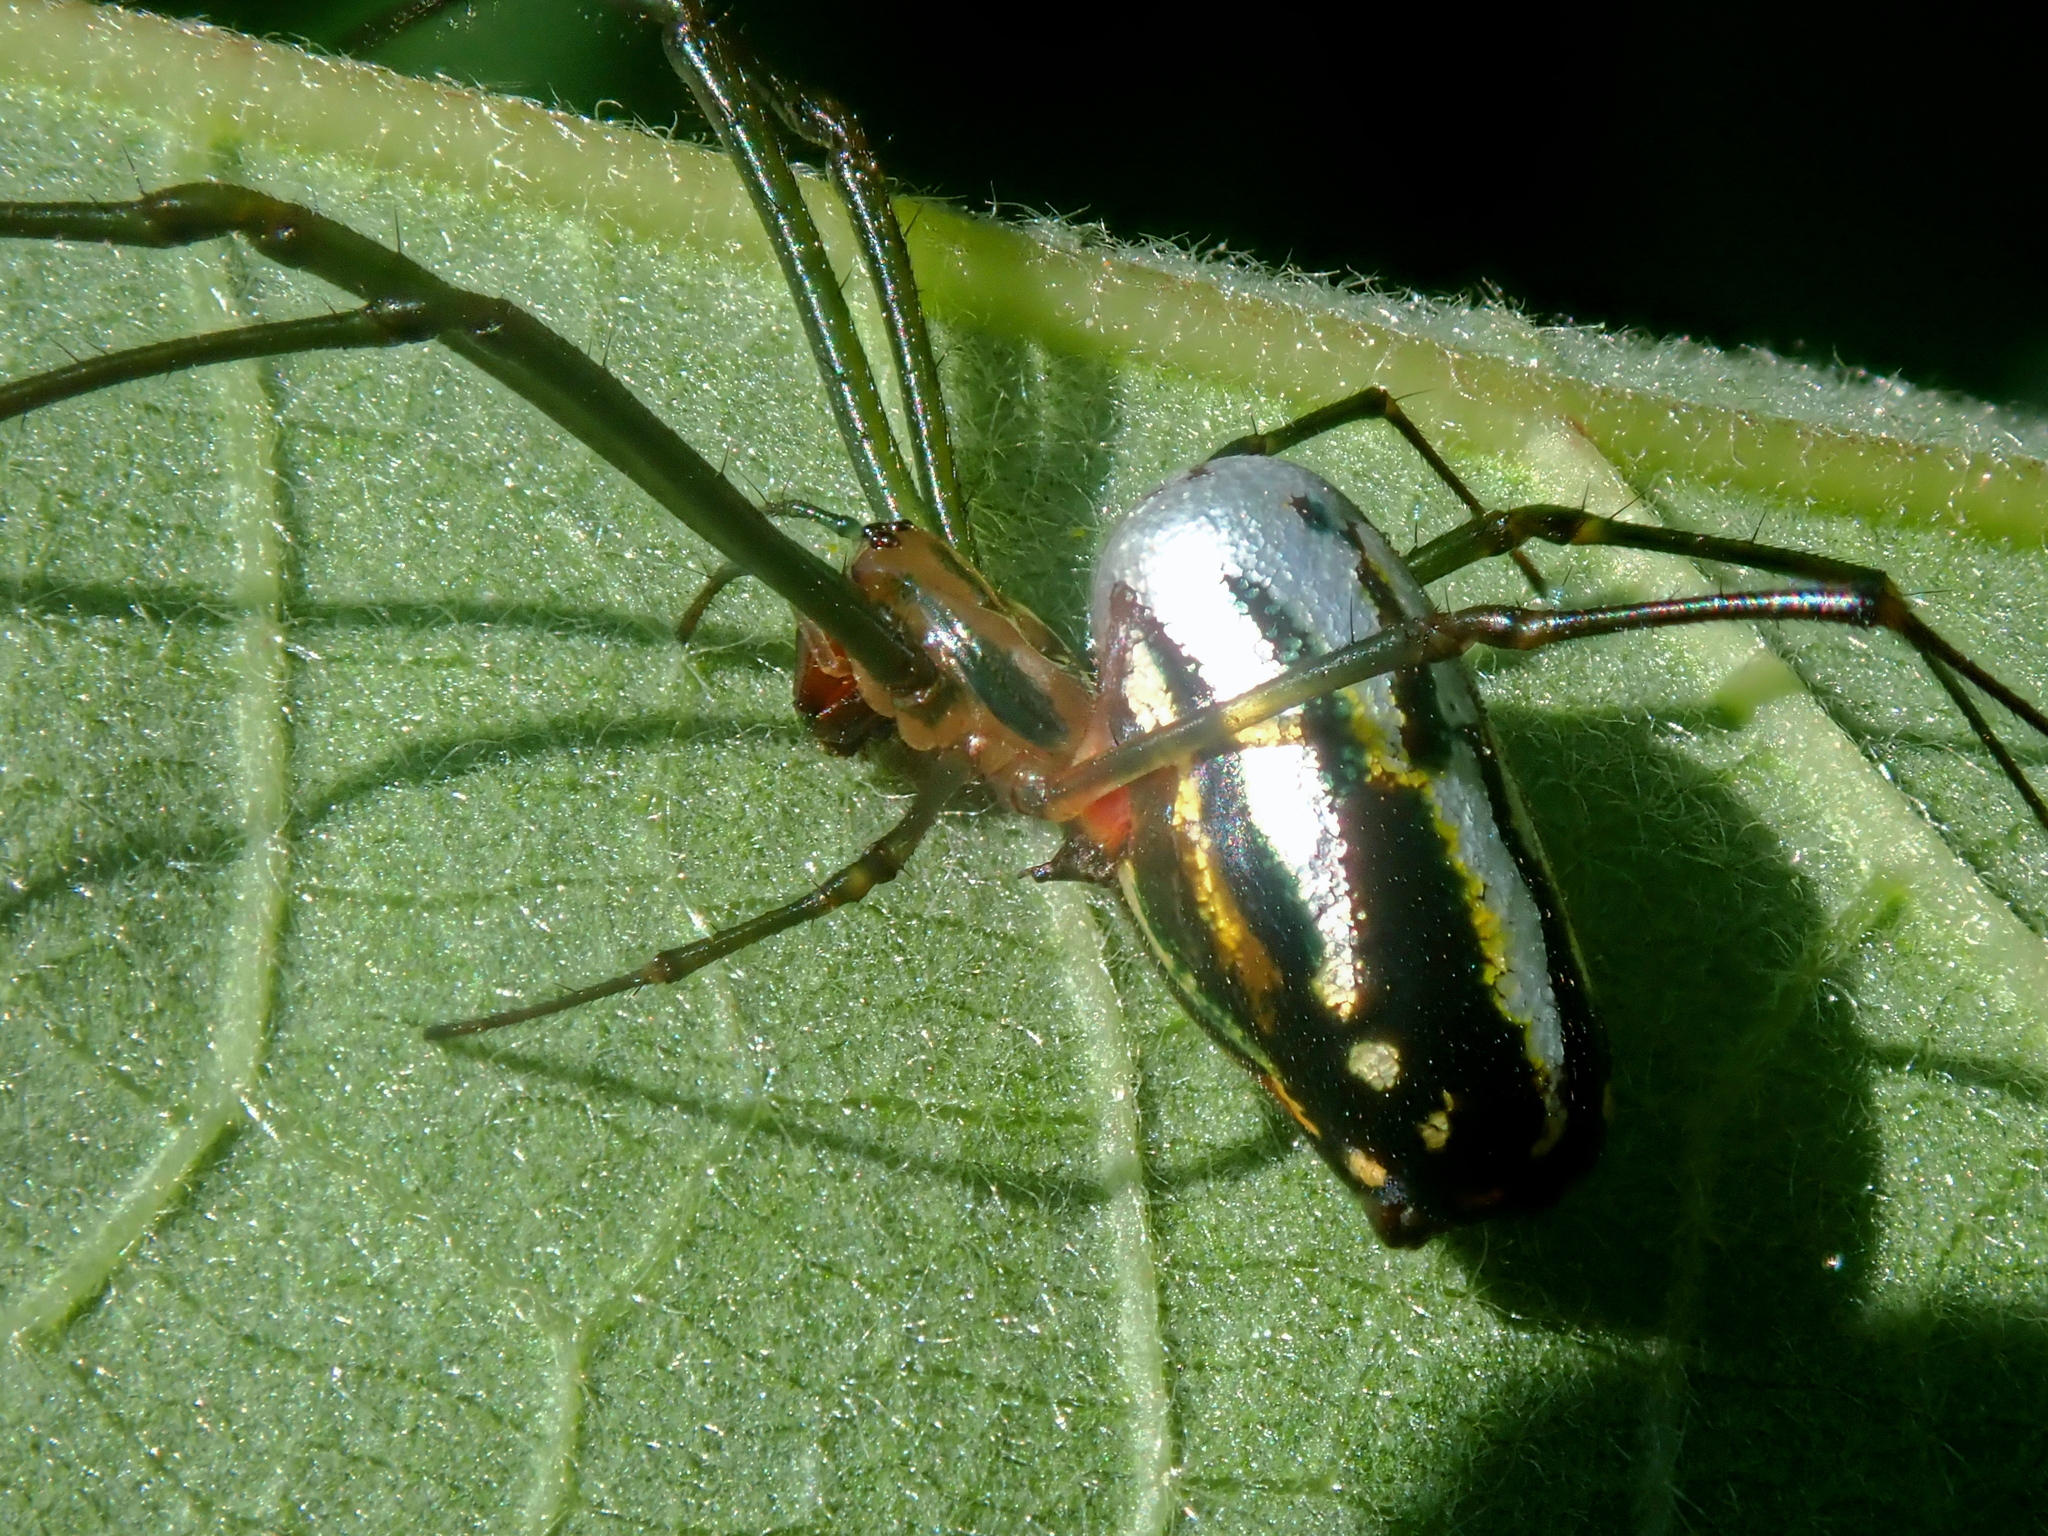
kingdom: Animalia
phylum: Arthropoda
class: Arachnida
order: Araneae
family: Tetragnathidae
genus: Leucauge
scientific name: Leucauge argyra
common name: Longjawed orb weavers
